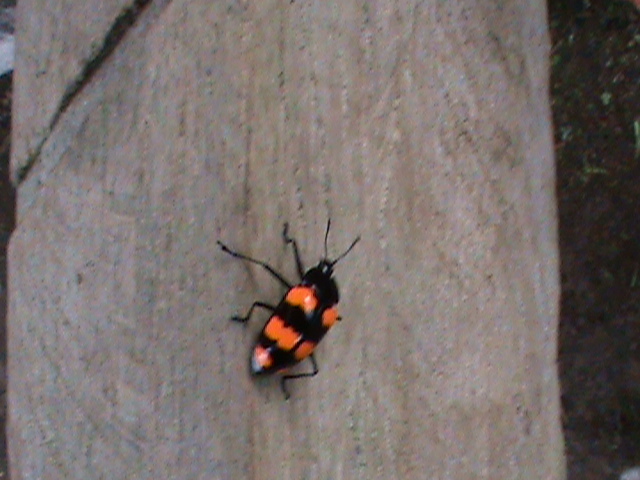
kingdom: Animalia
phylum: Arthropoda
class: Insecta
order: Coleoptera
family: Erotylidae
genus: Scaphidomorphus
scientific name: Scaphidomorphus bosci
